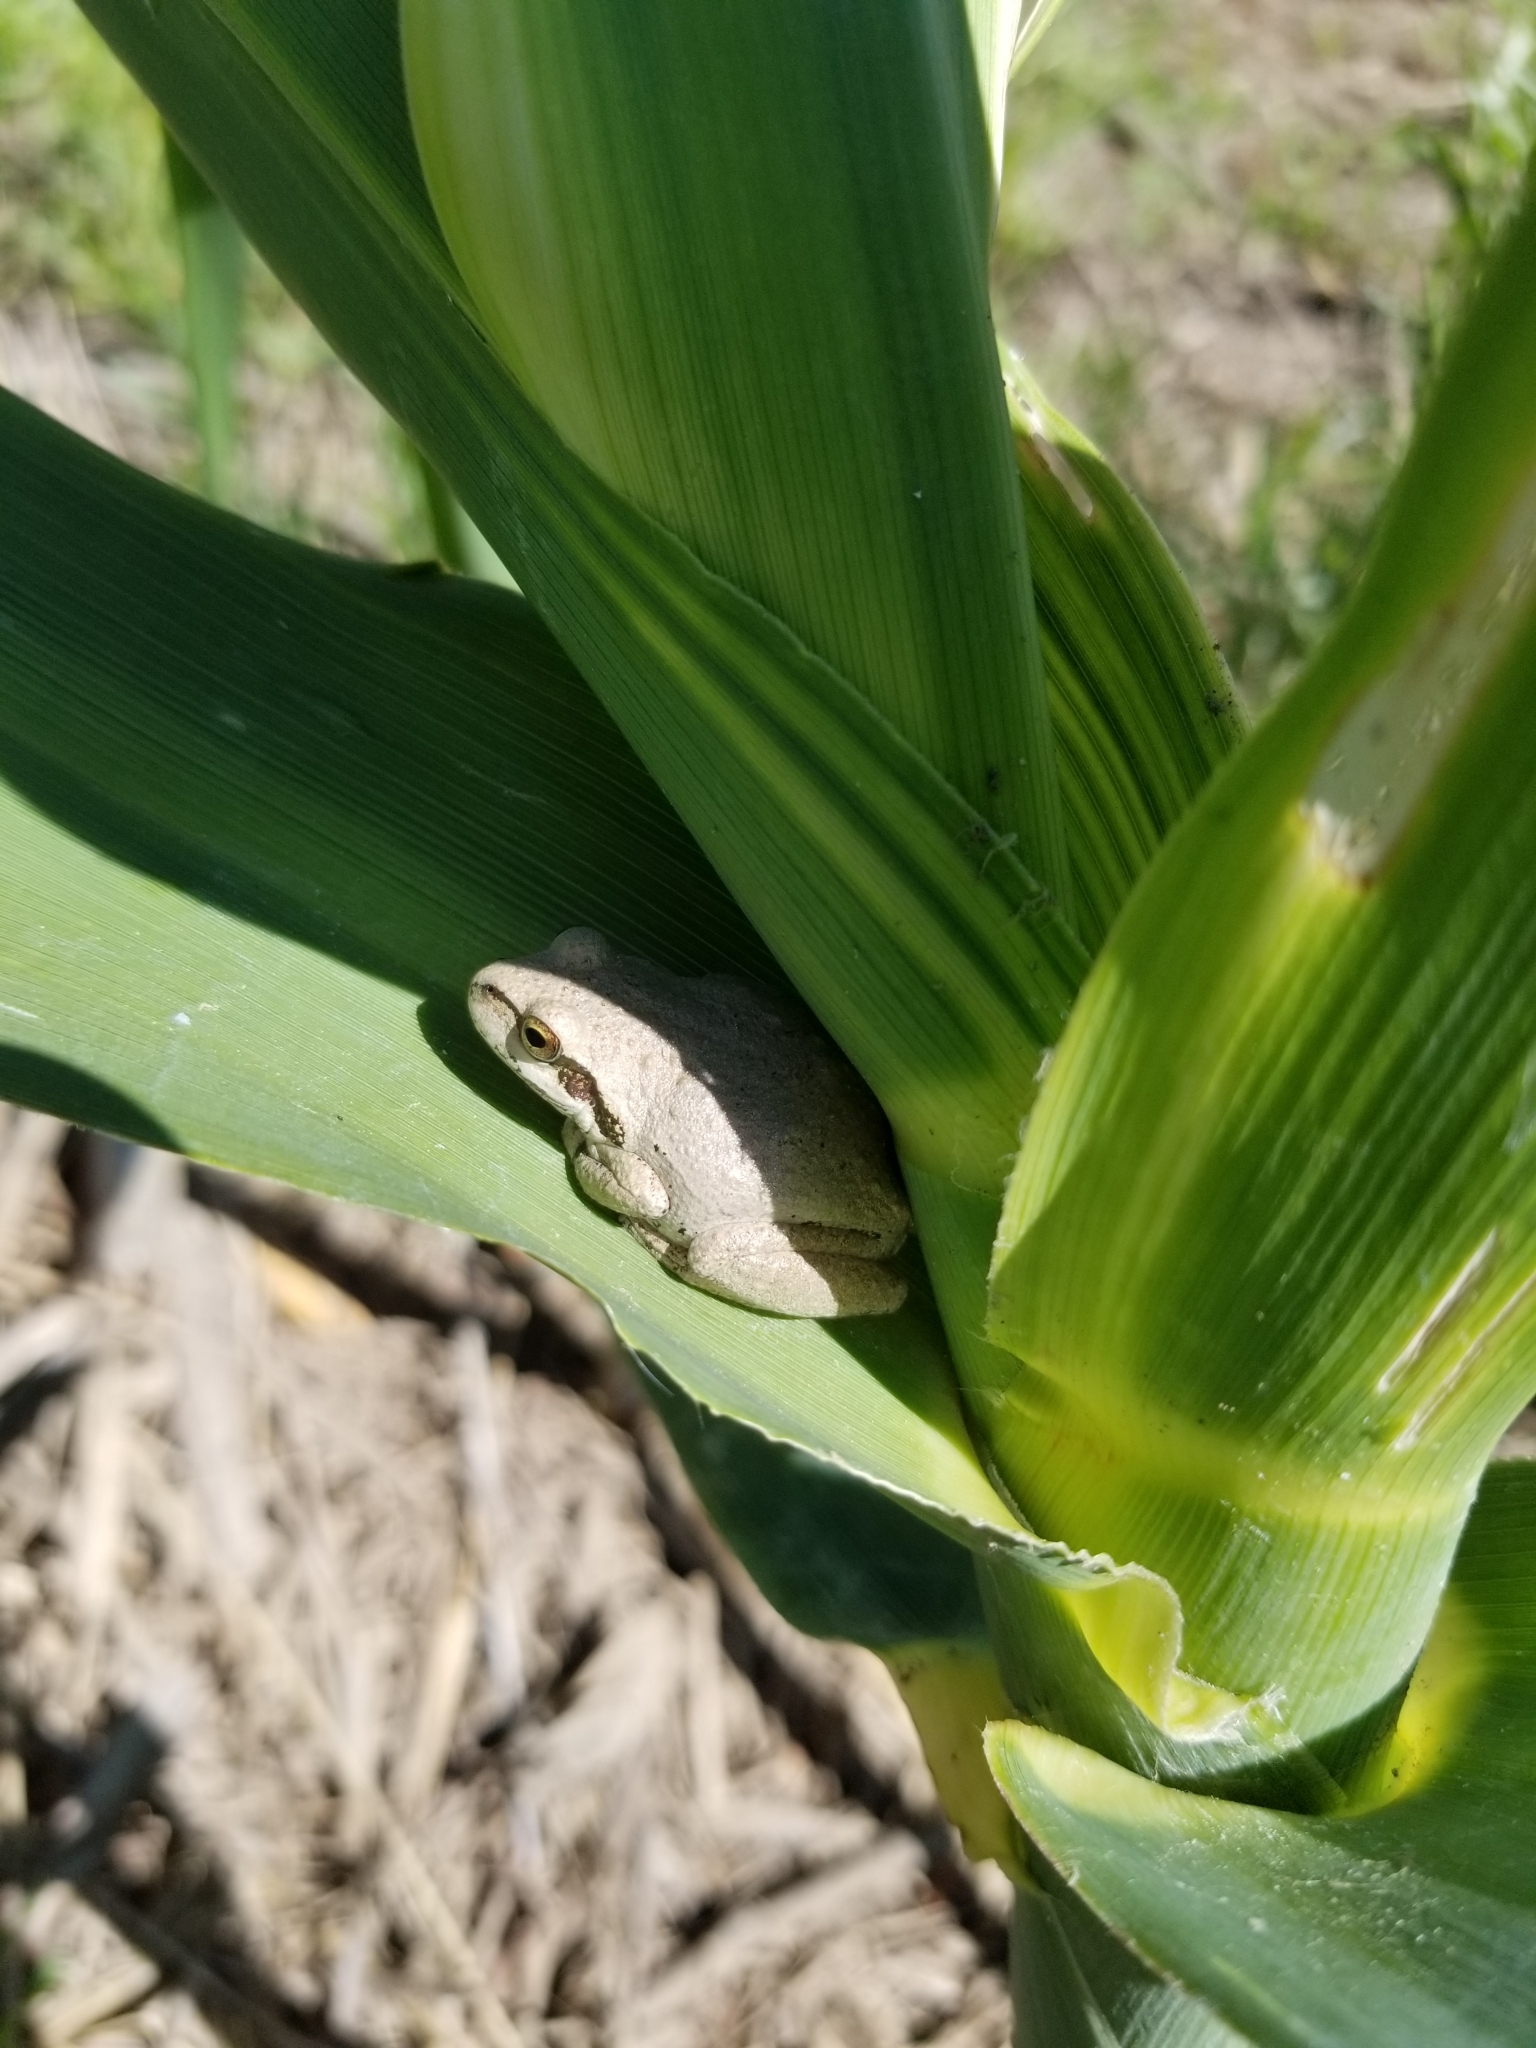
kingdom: Animalia
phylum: Chordata
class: Amphibia
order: Anura
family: Hylidae
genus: Pseudacris
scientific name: Pseudacris regilla
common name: Pacific chorus frog
